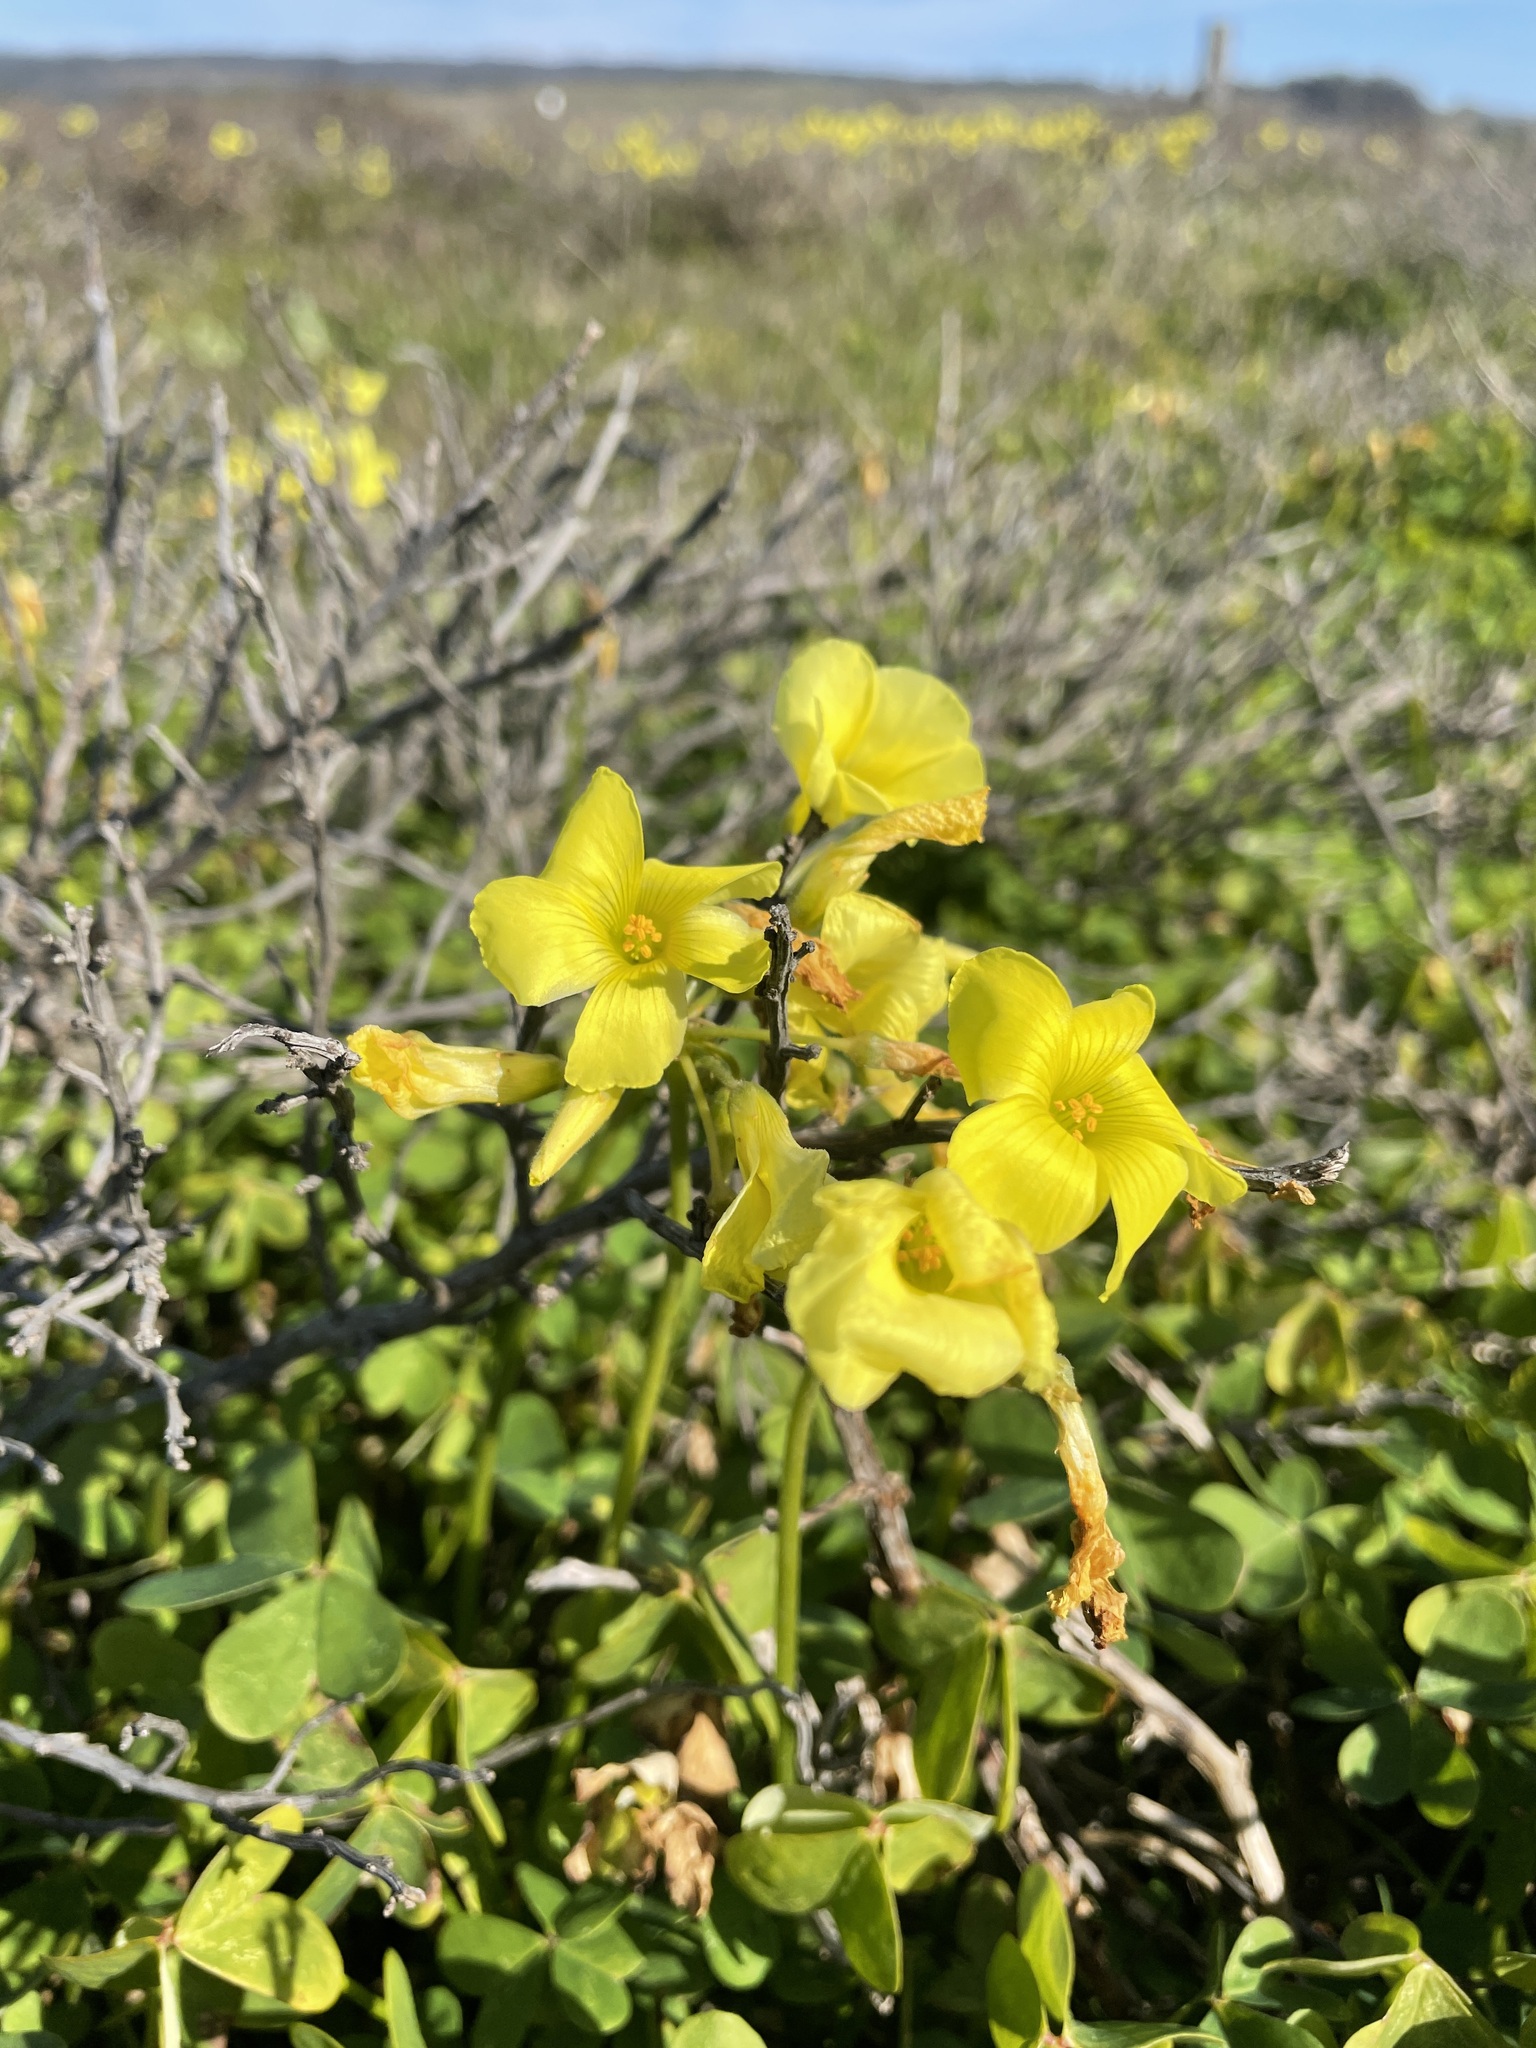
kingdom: Plantae
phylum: Tracheophyta
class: Magnoliopsida
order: Oxalidales
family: Oxalidaceae
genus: Oxalis
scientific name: Oxalis pes-caprae
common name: Bermuda-buttercup
